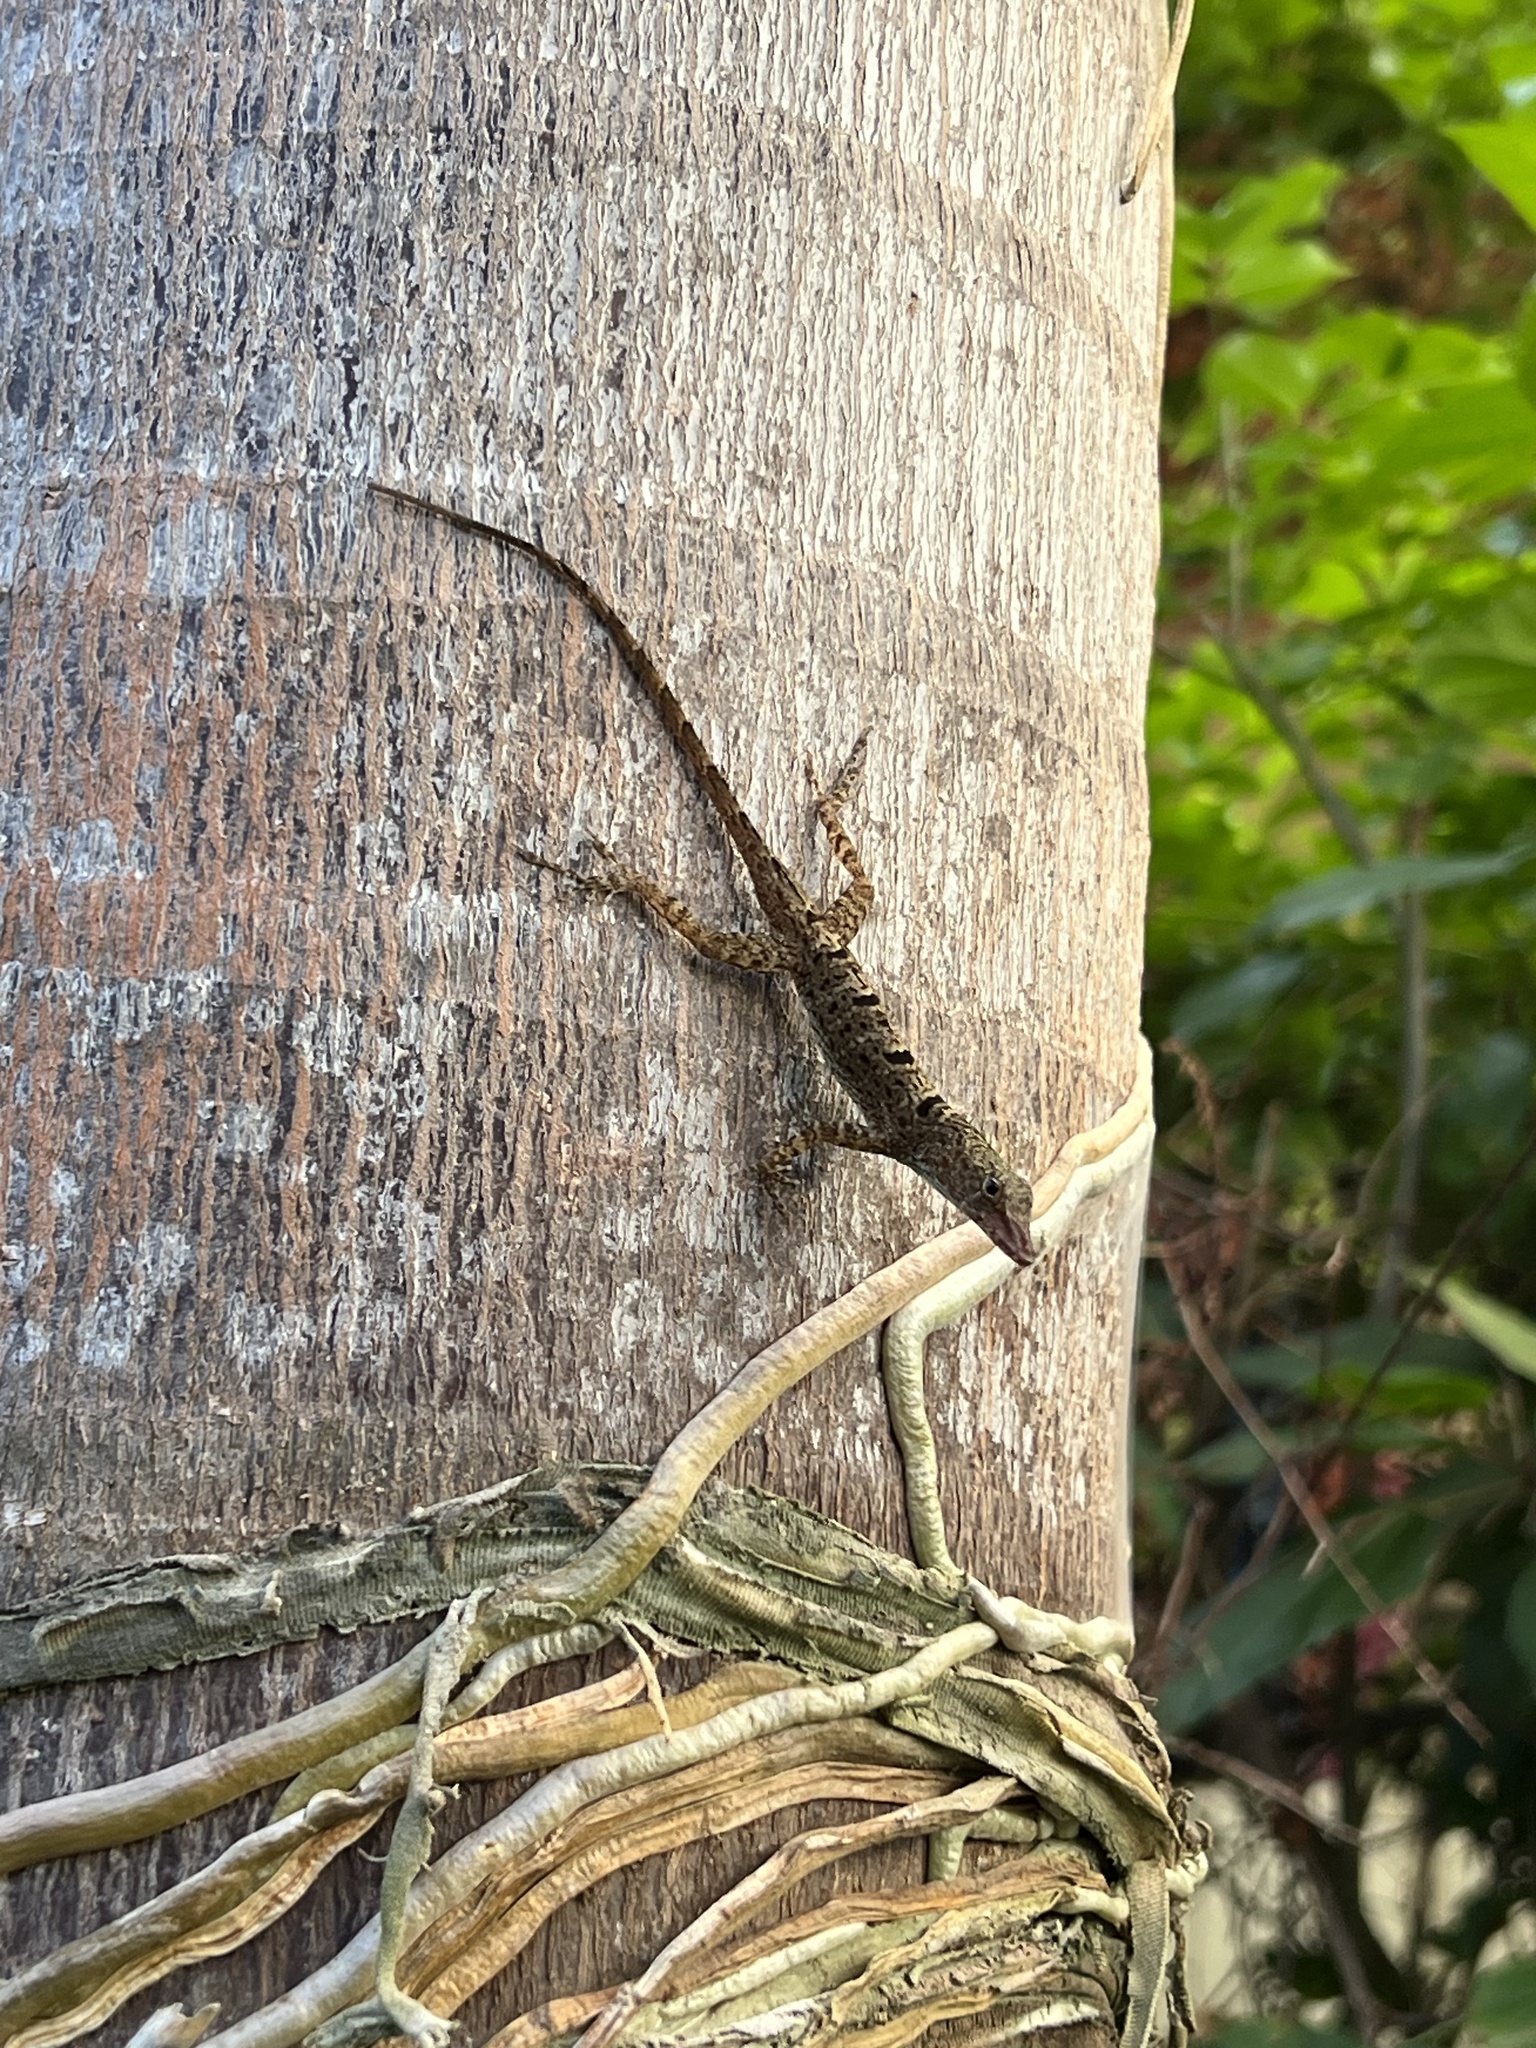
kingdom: Animalia
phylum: Chordata
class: Squamata
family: Dactyloidae
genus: Anolis
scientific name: Anolis stratulus
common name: Banded anole
